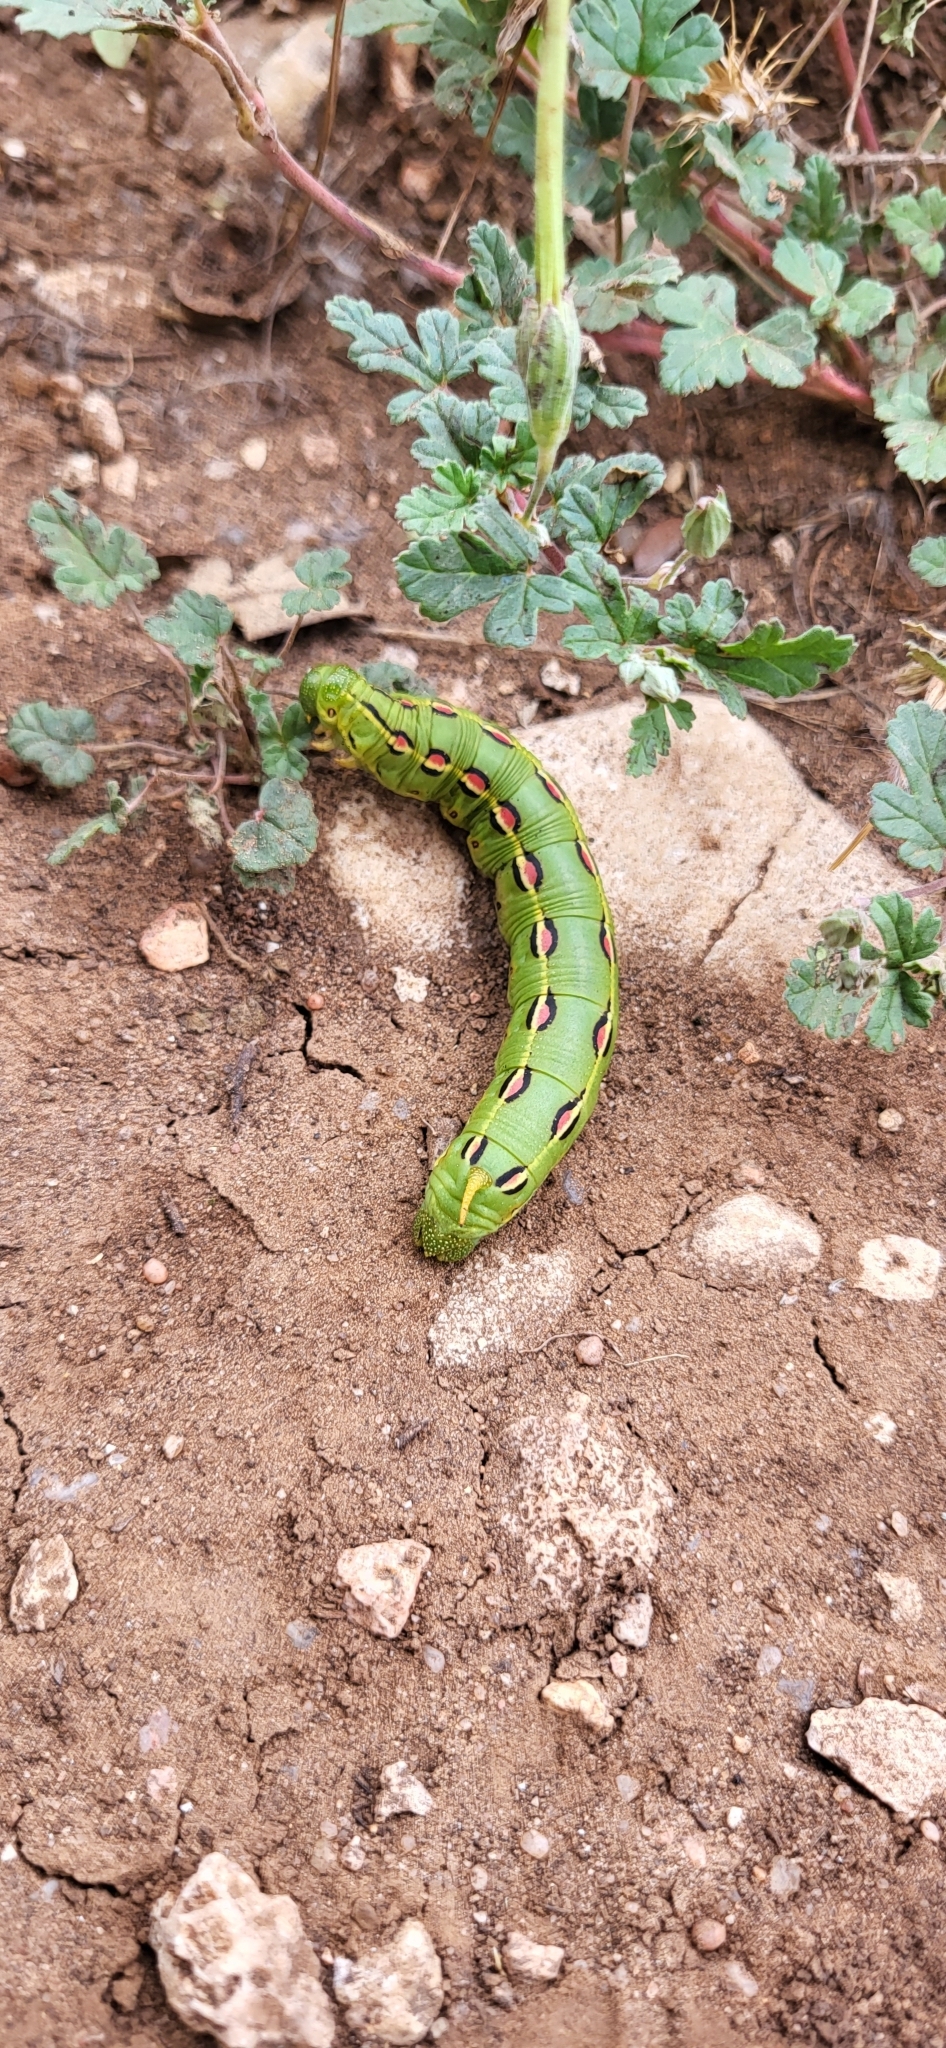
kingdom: Animalia
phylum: Arthropoda
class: Insecta
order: Lepidoptera
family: Sphingidae
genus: Hyles
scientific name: Hyles lineata
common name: White-lined sphinx
